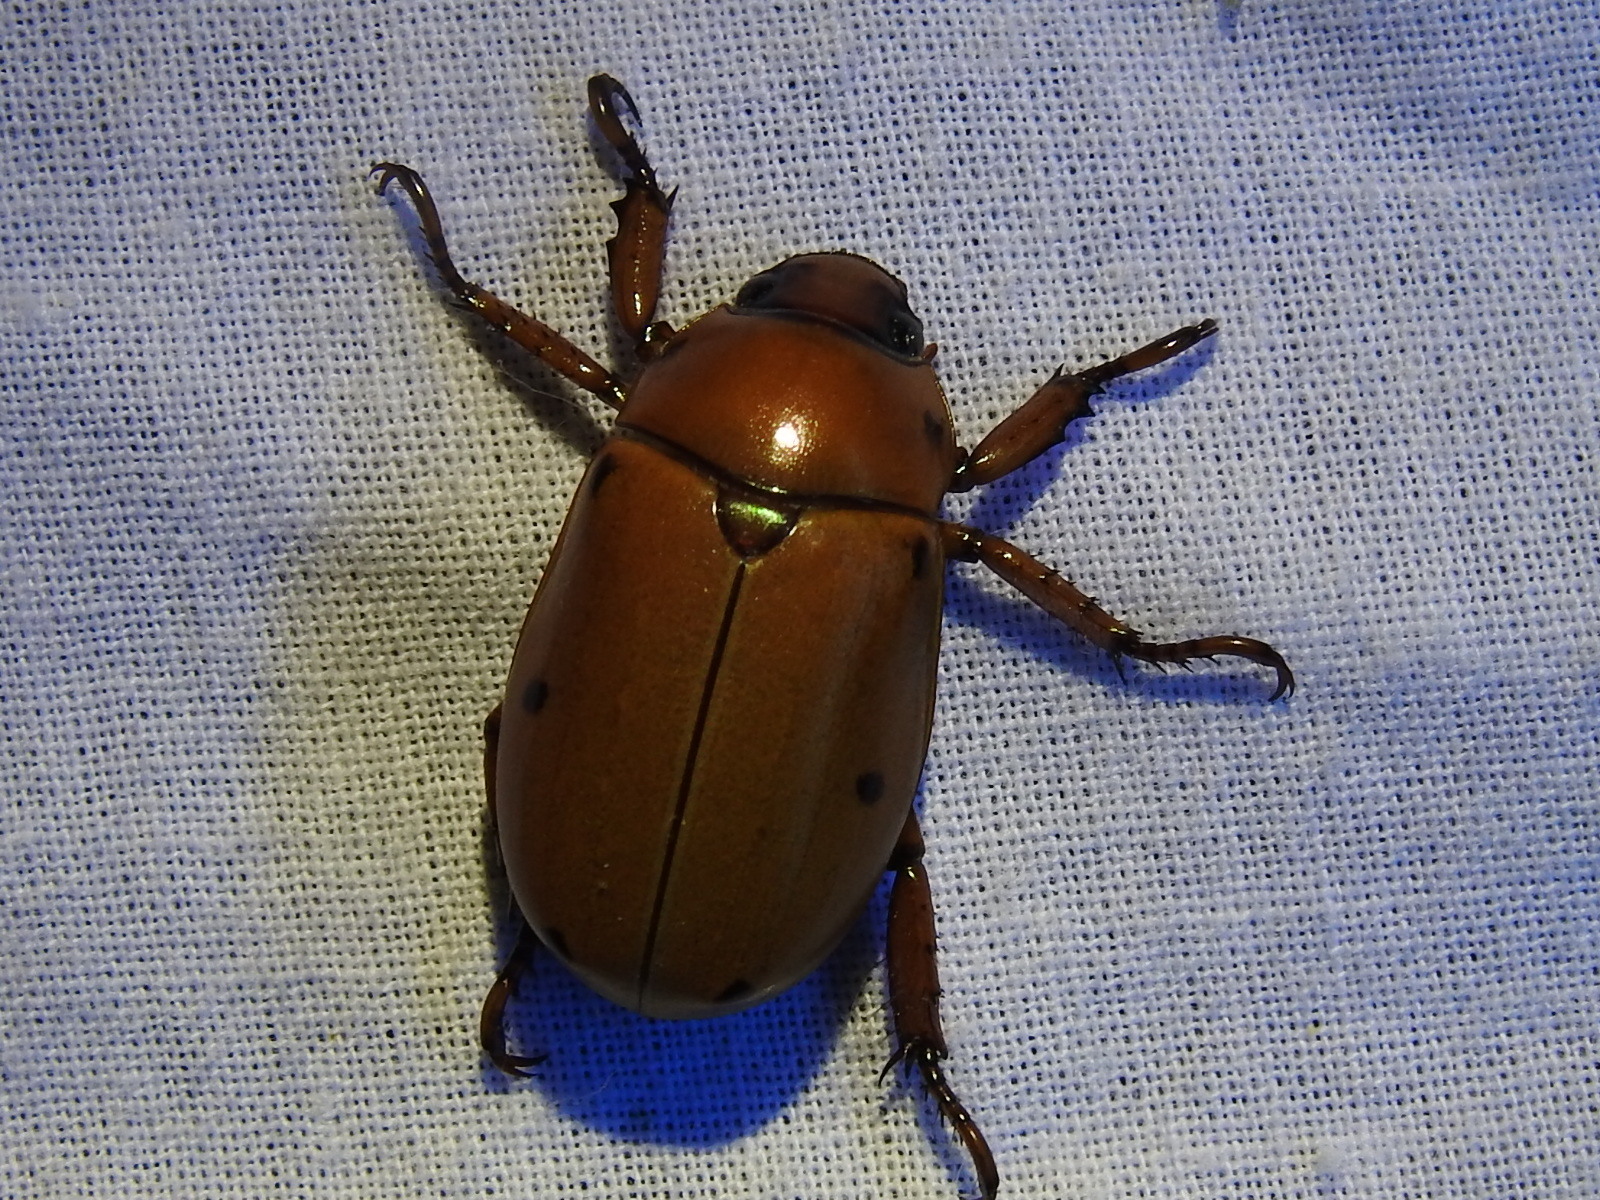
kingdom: Animalia
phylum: Arthropoda
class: Insecta
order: Coleoptera
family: Scarabaeidae
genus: Pelidnota
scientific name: Pelidnota punctata
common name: Grapevine beetle
